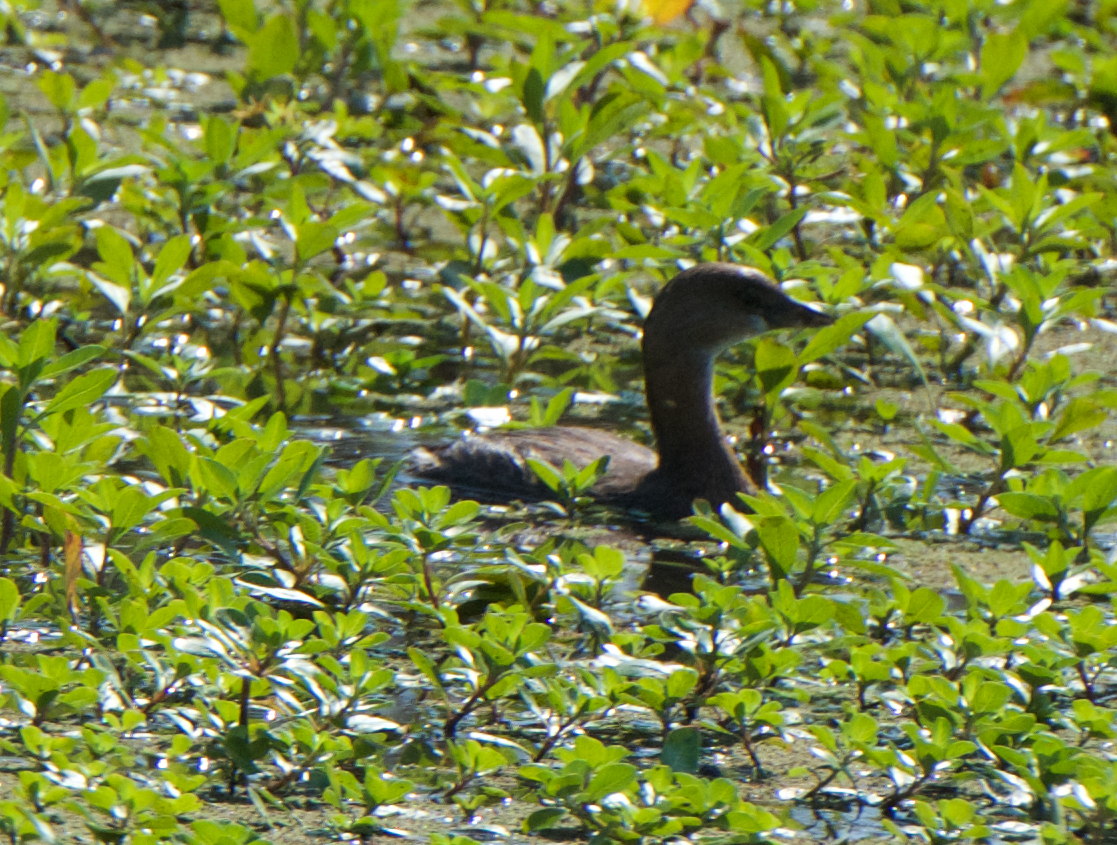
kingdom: Animalia
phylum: Chordata
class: Aves
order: Podicipediformes
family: Podicipedidae
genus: Podilymbus
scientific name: Podilymbus podiceps
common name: Pied-billed grebe
